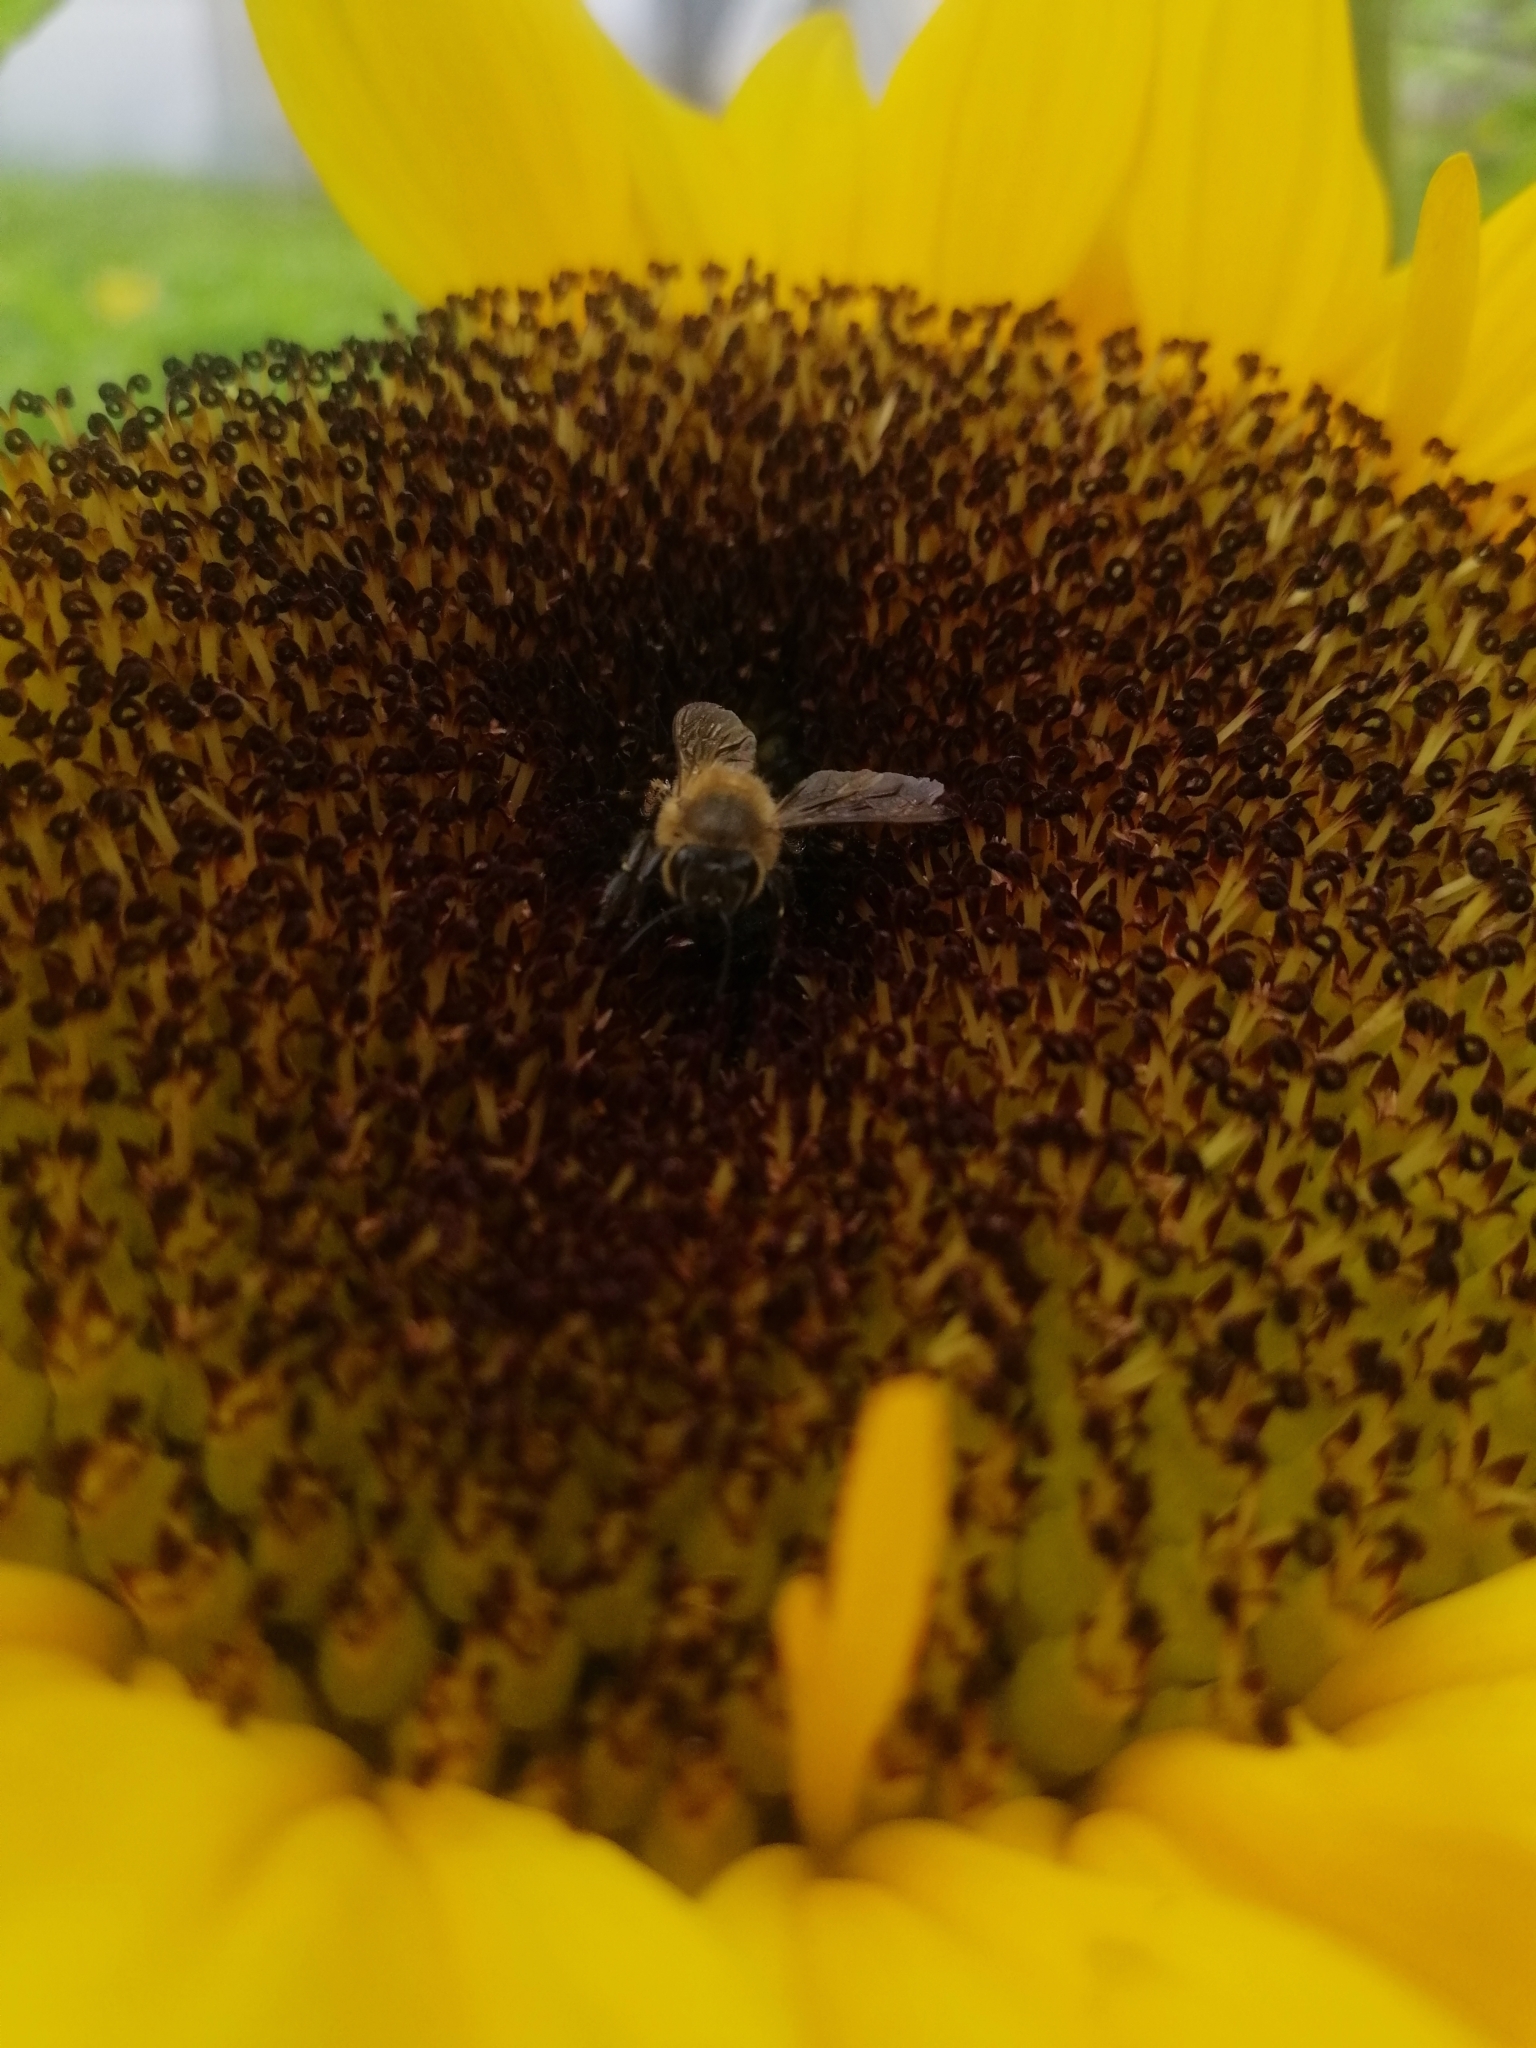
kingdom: Animalia
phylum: Arthropoda
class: Insecta
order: Hymenoptera
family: Apidae
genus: Apis
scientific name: Apis mellifera
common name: Honey bee
